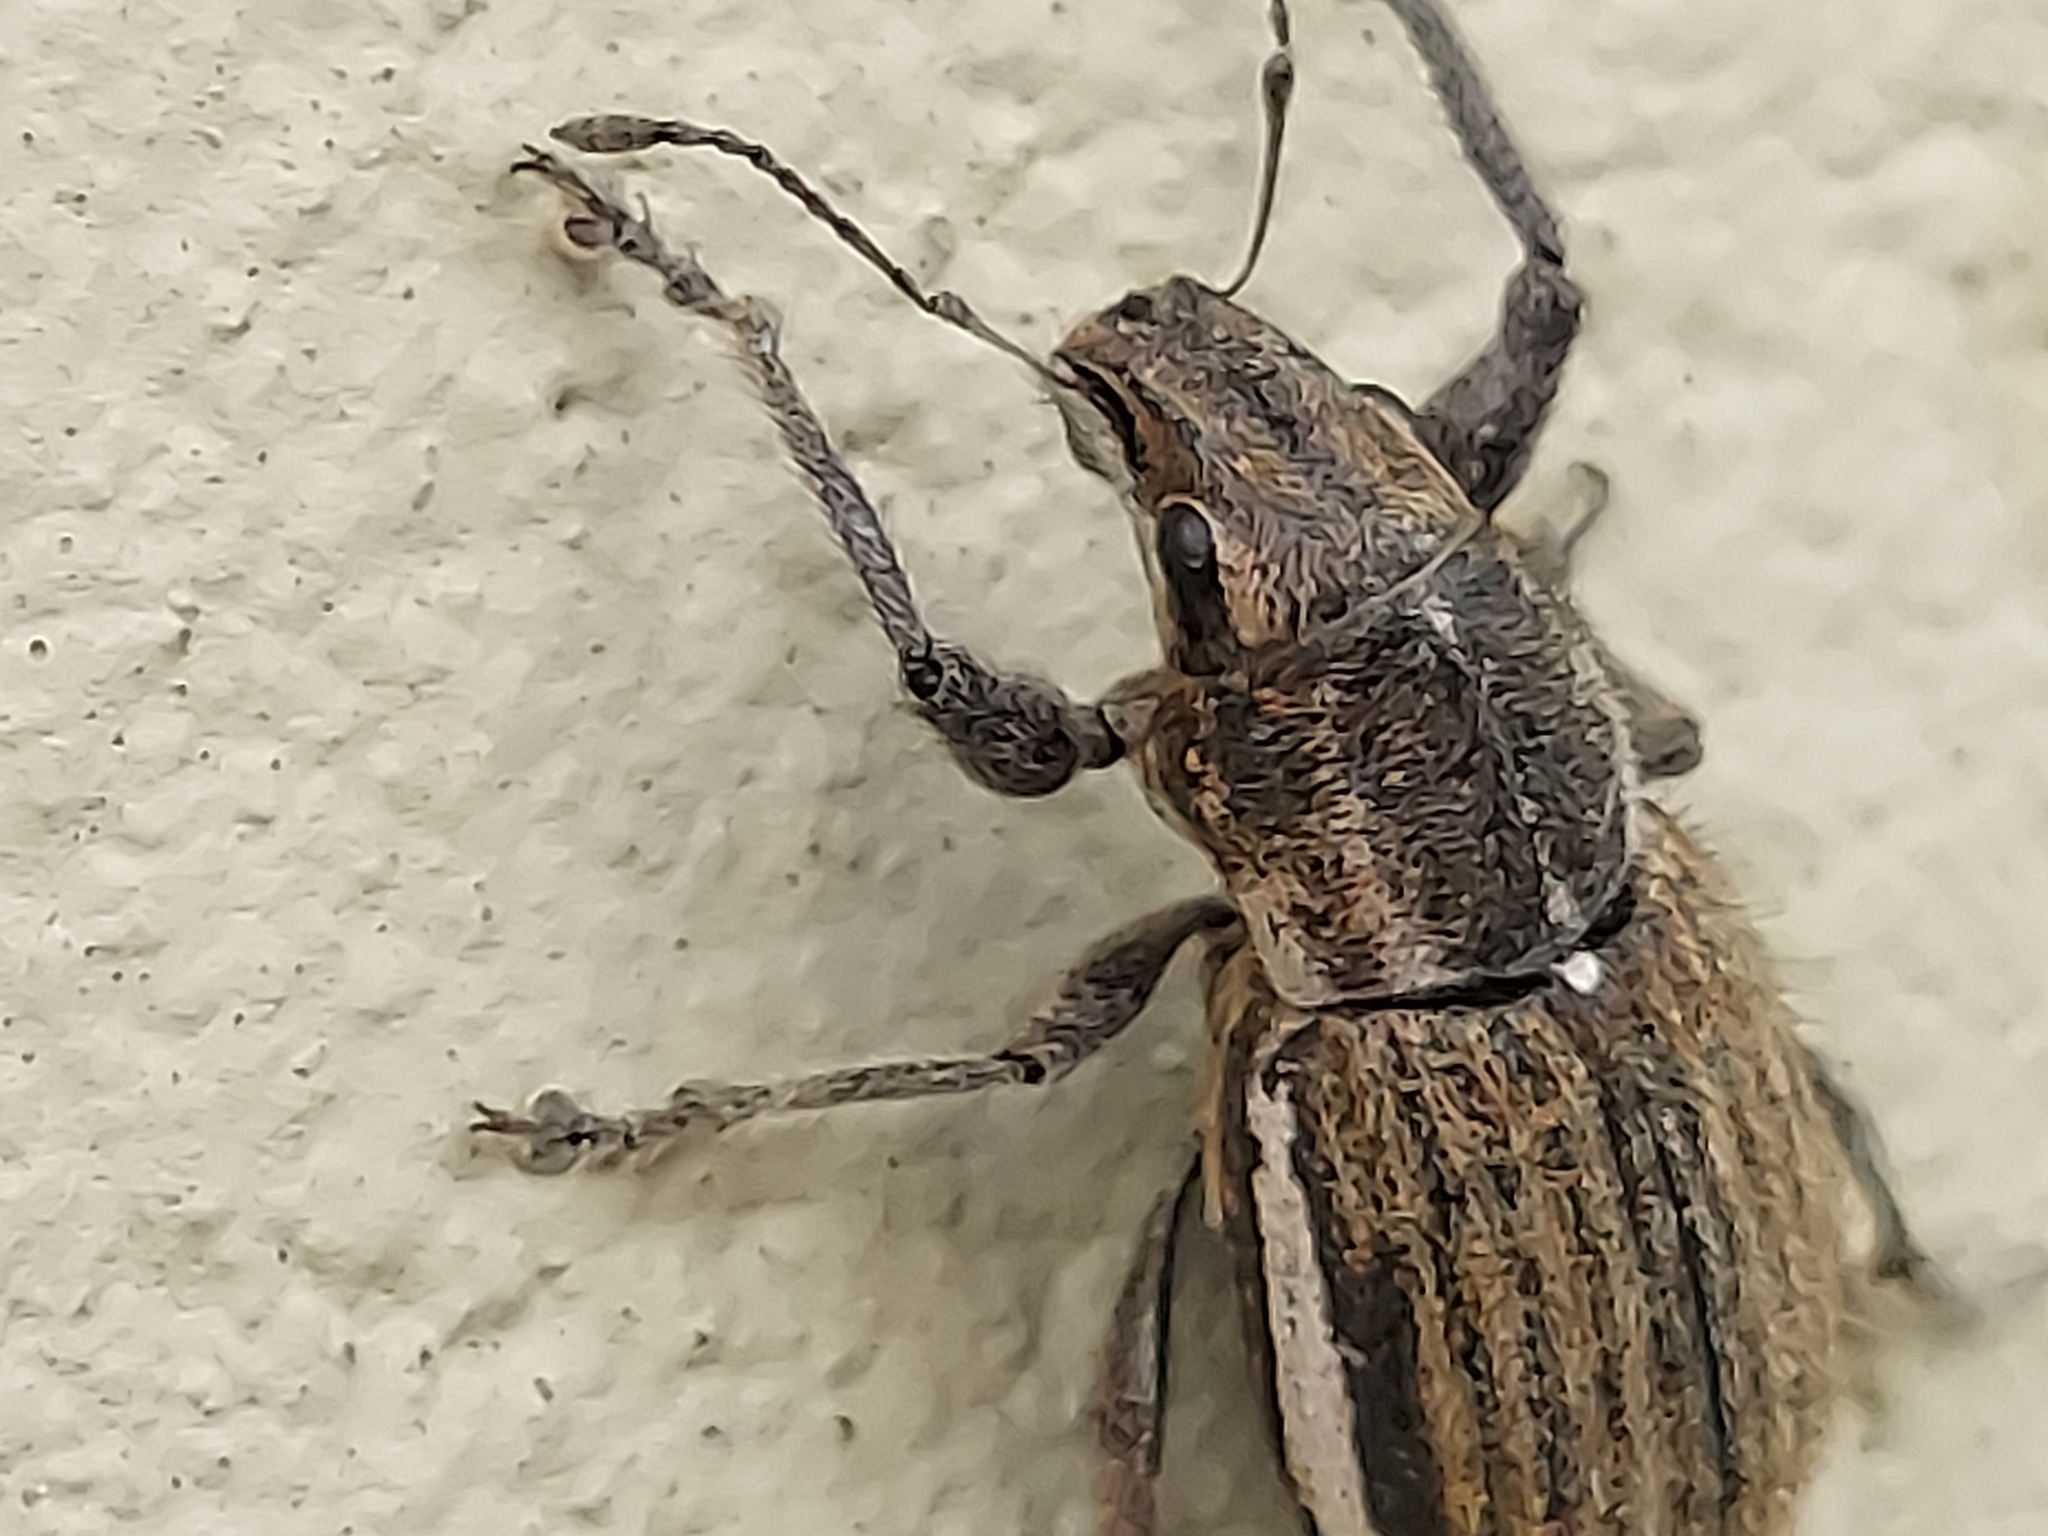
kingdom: Animalia
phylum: Arthropoda
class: Insecta
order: Coleoptera
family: Curculionidae
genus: Naupactus
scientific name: Naupactus leucoloma
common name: Whitefringed beetle
